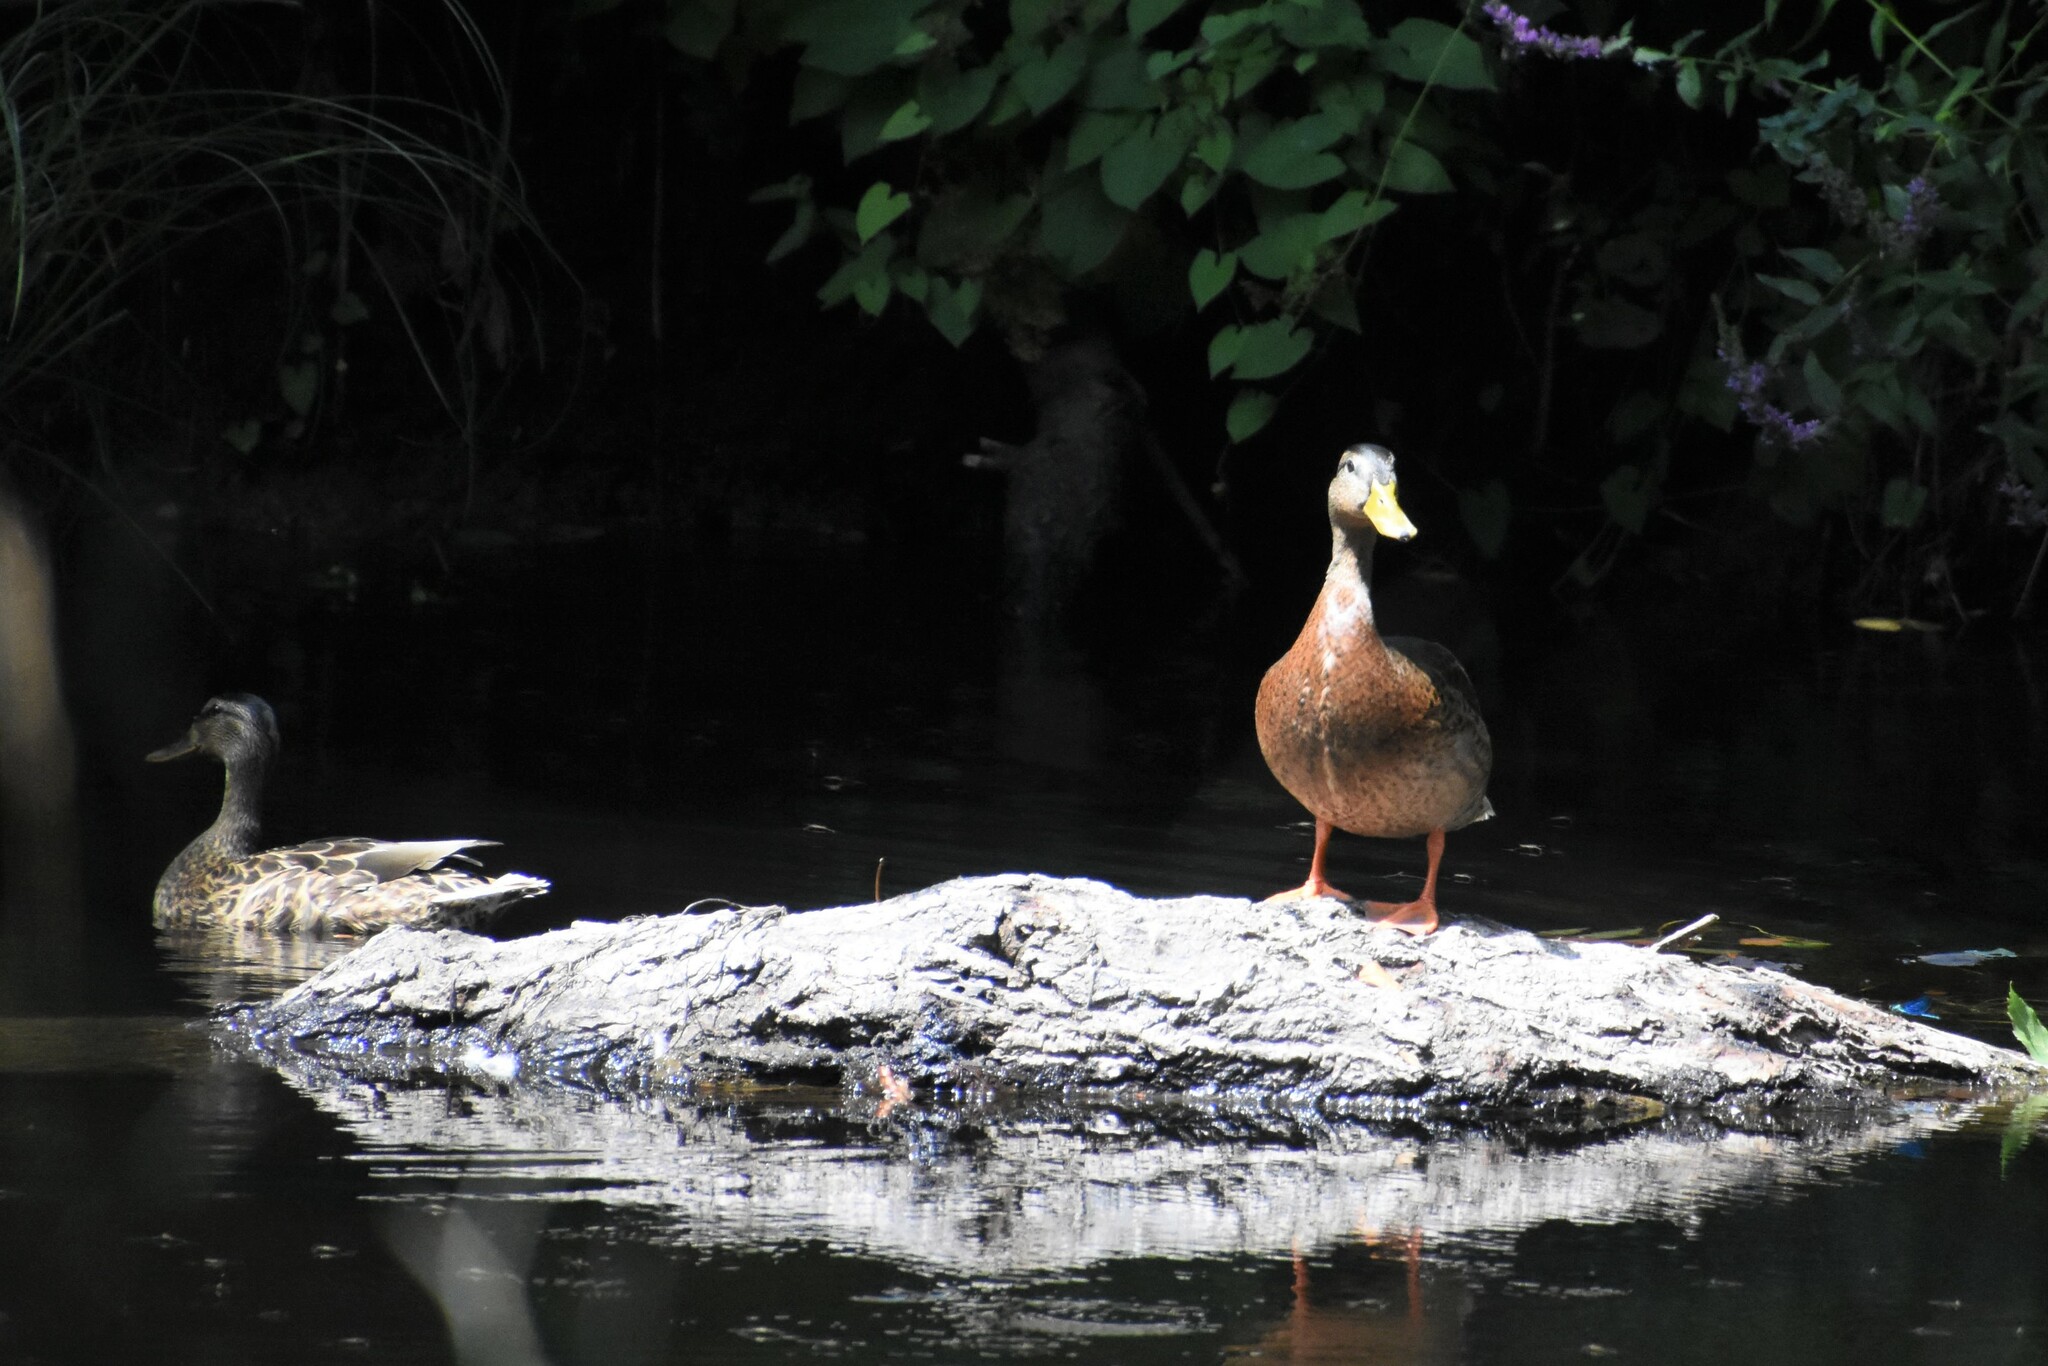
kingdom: Animalia
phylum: Chordata
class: Aves
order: Anseriformes
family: Anatidae
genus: Anas
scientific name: Anas platyrhynchos
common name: Mallard
